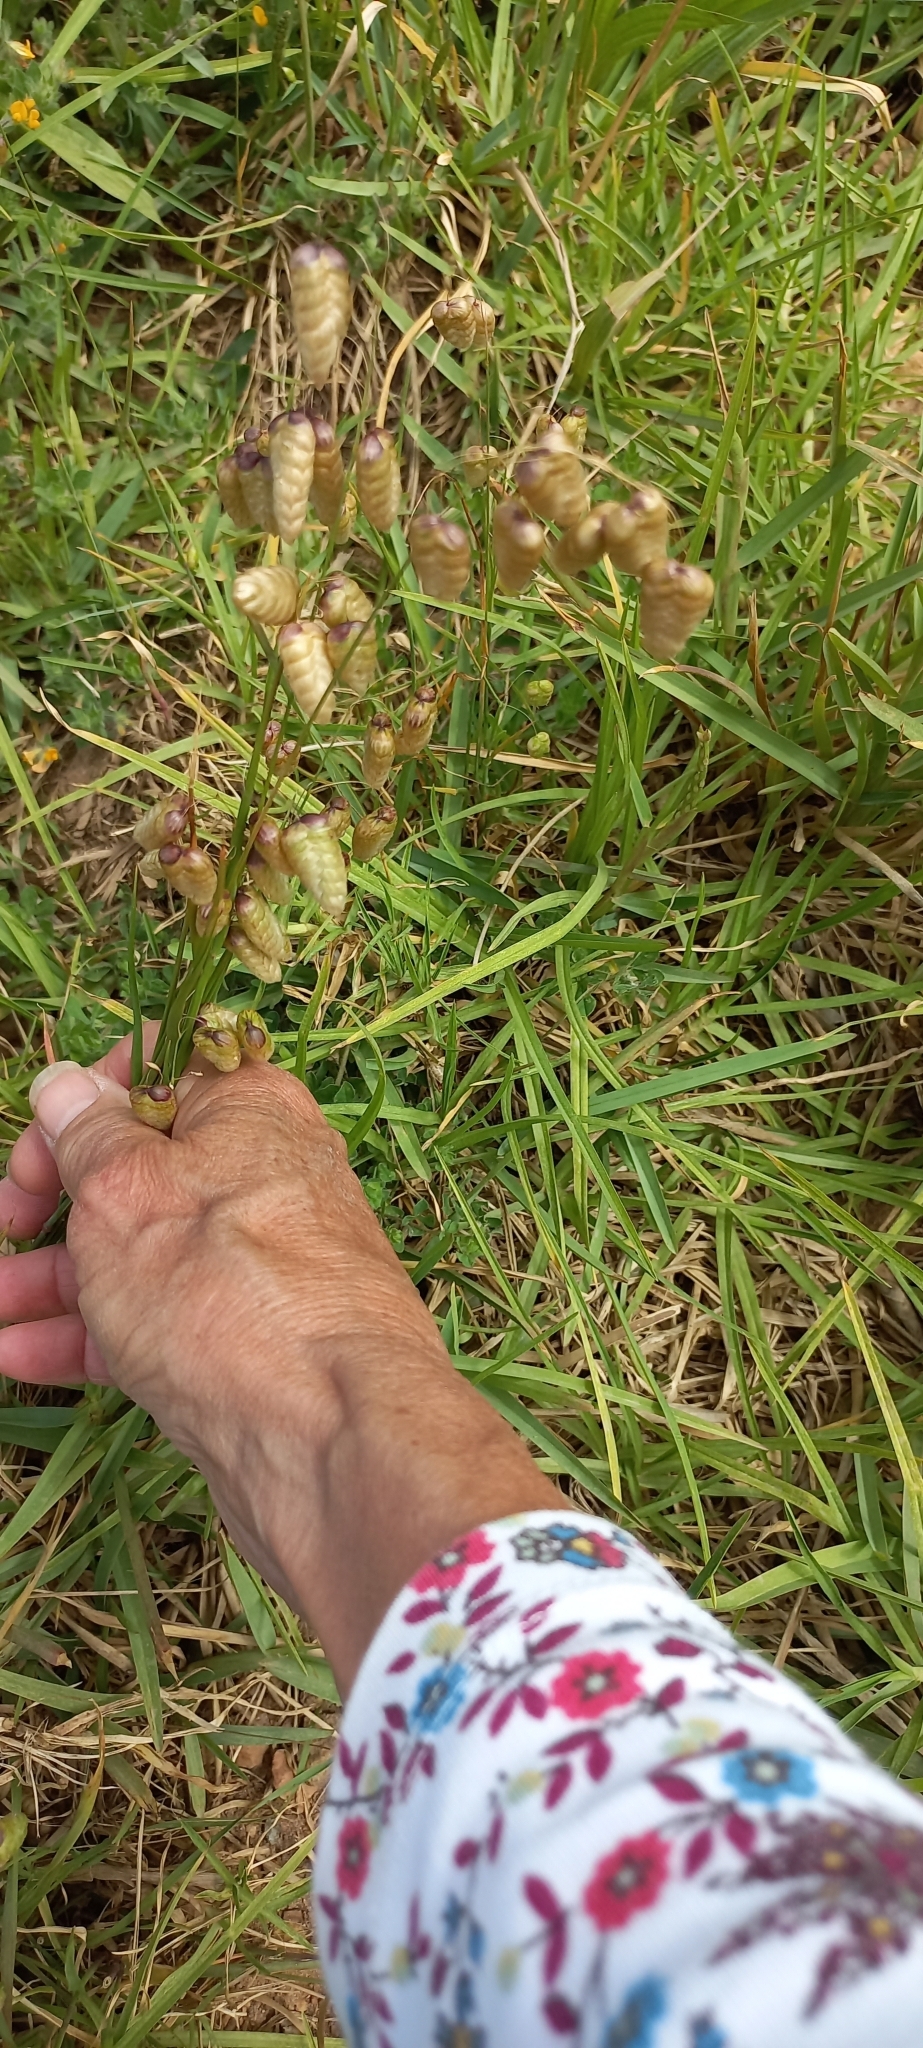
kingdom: Plantae
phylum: Tracheophyta
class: Liliopsida
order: Poales
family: Poaceae
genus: Briza
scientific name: Briza maxima
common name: Big quakinggrass
